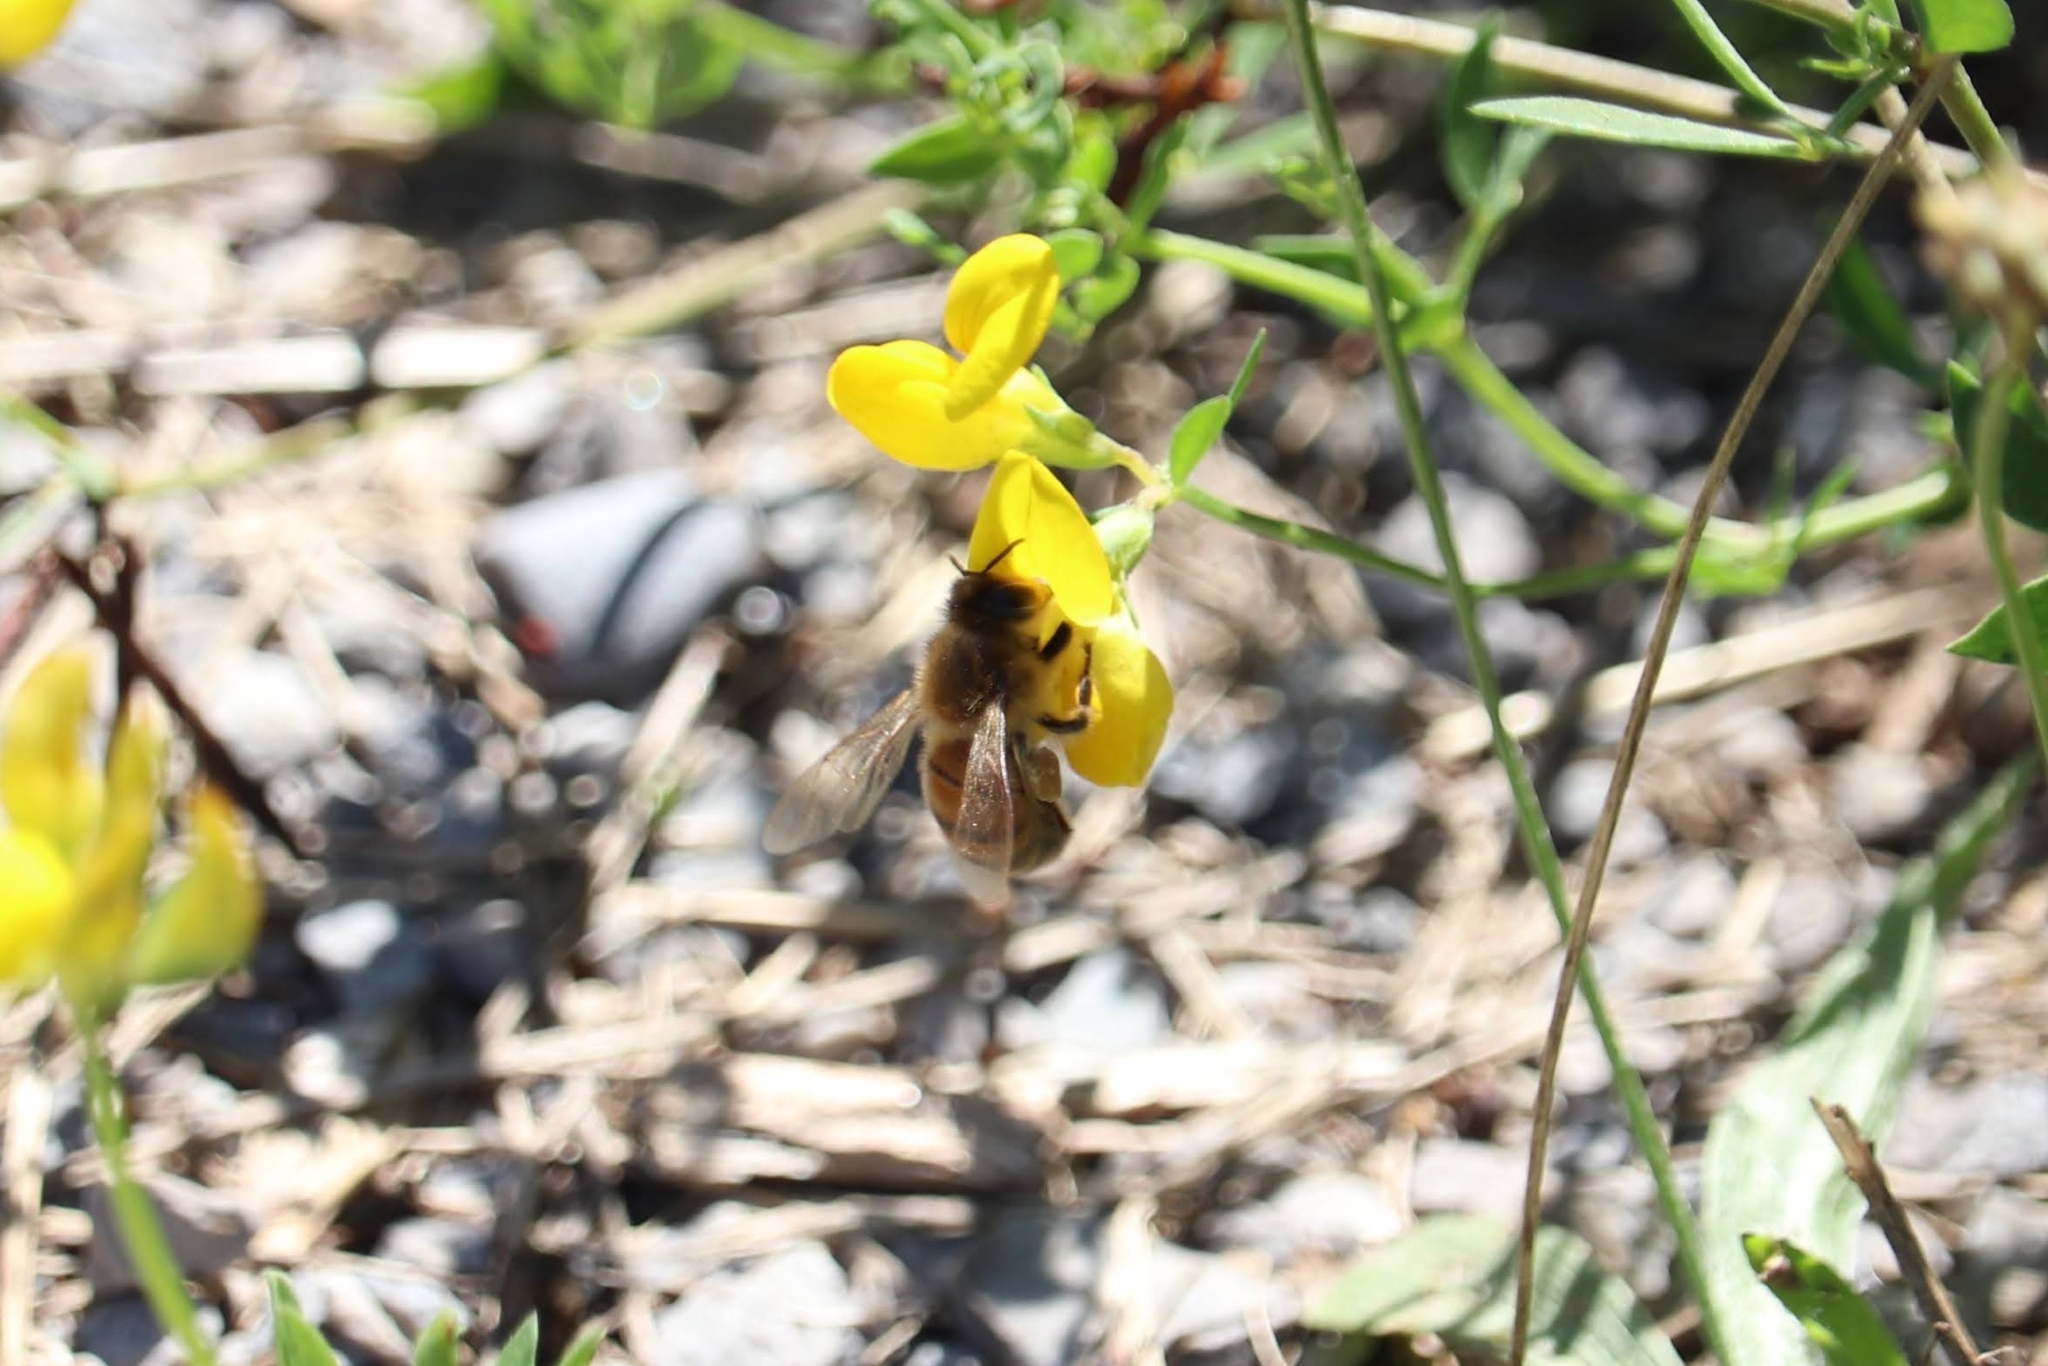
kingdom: Animalia
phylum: Arthropoda
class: Insecta
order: Hymenoptera
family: Apidae
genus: Apis
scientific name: Apis mellifera
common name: Honey bee
